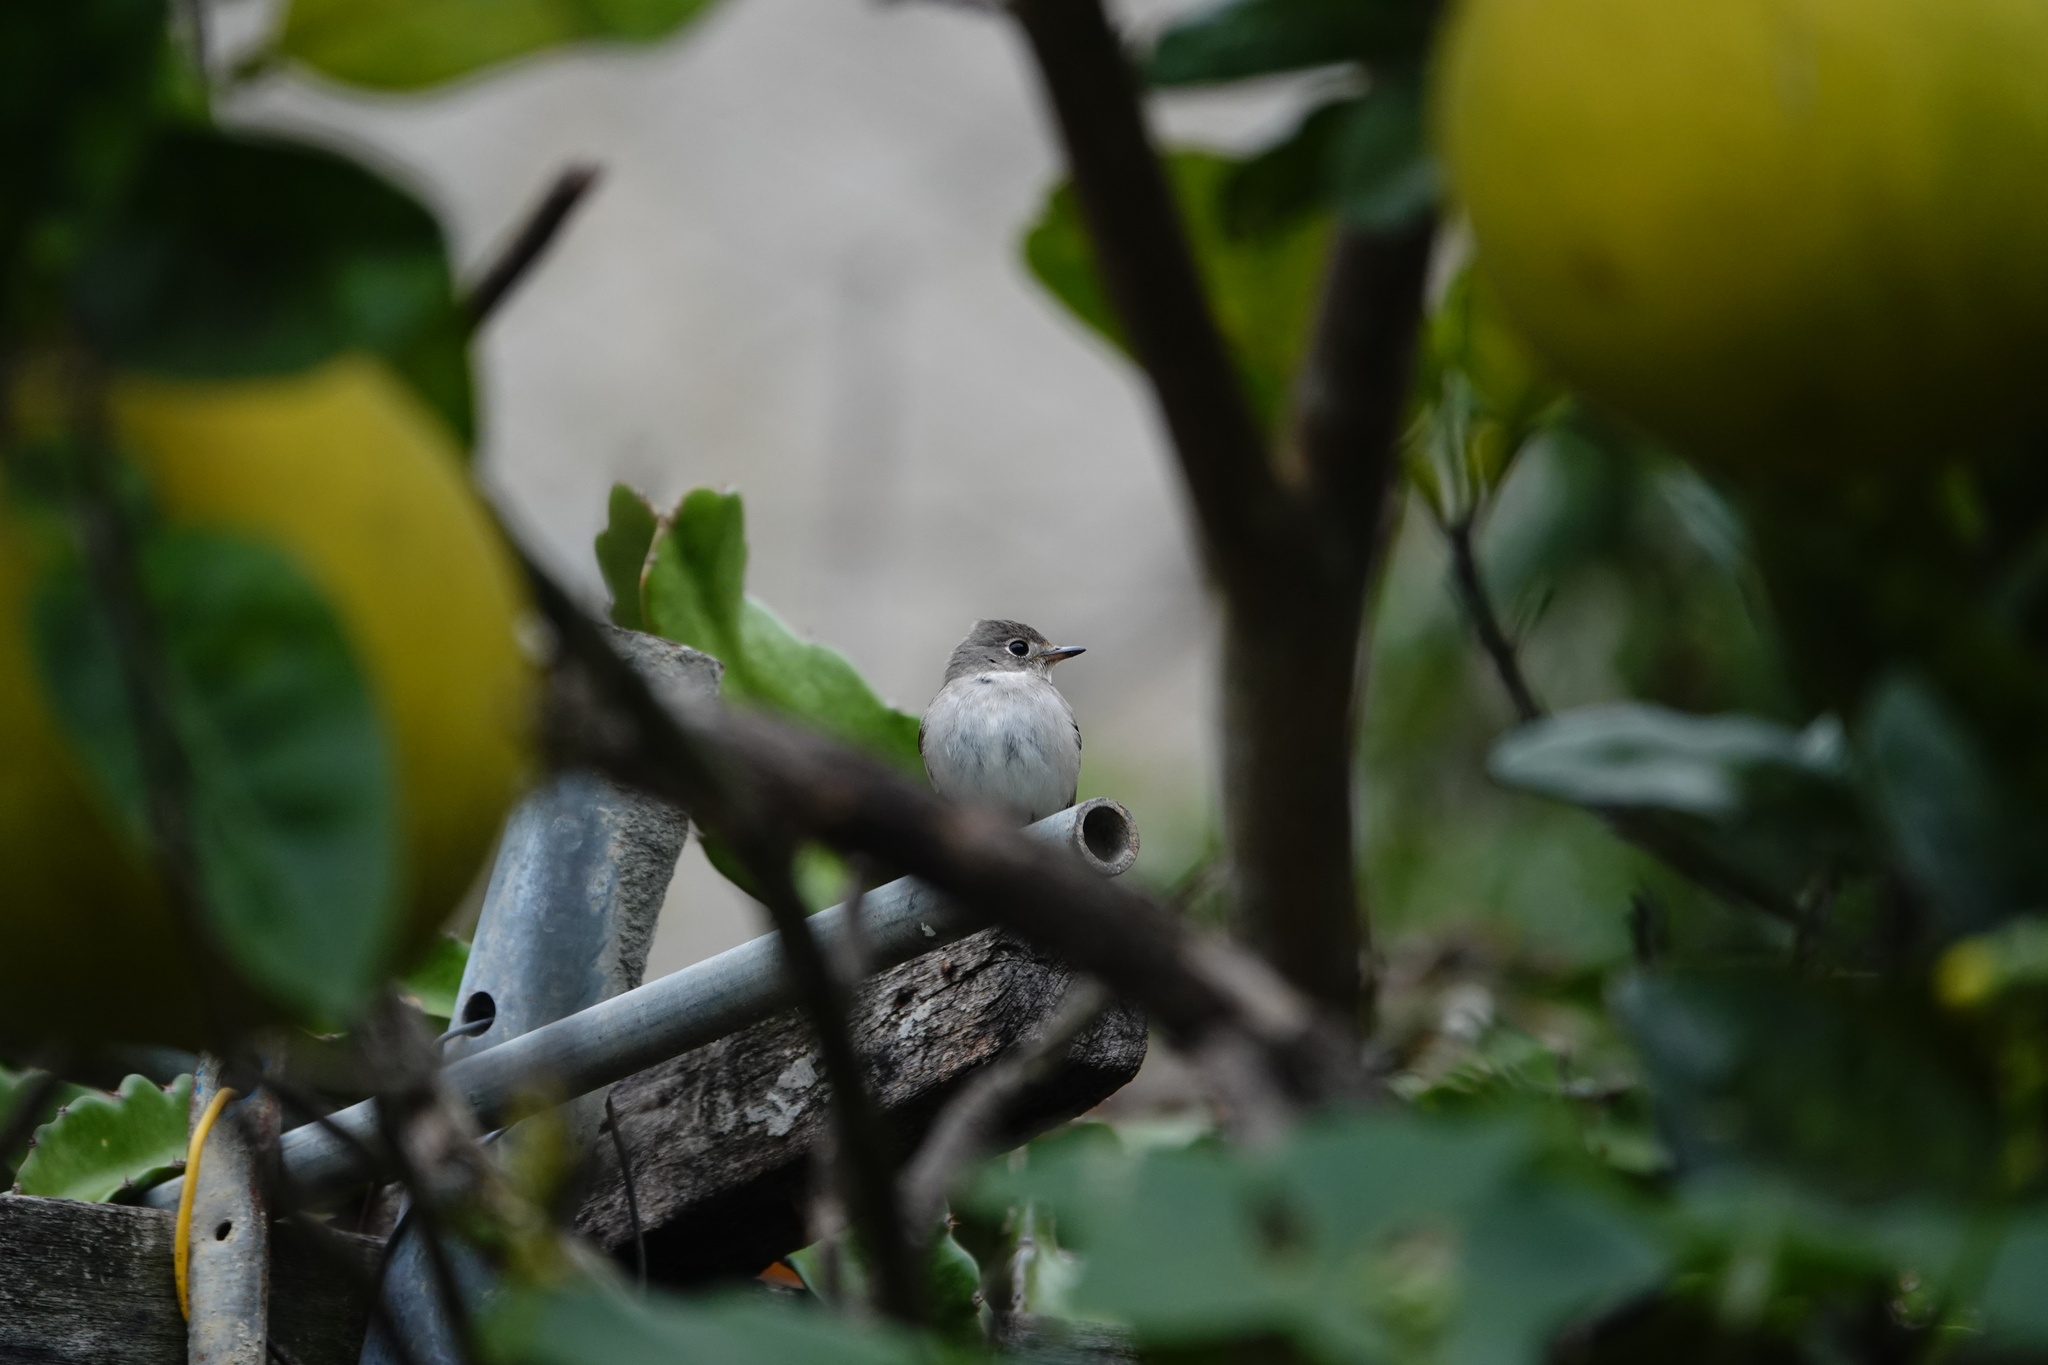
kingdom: Animalia
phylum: Chordata
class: Aves
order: Passeriformes
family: Muscicapidae
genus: Muscicapa
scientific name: Muscicapa latirostris
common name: Asian brown flycatcher
